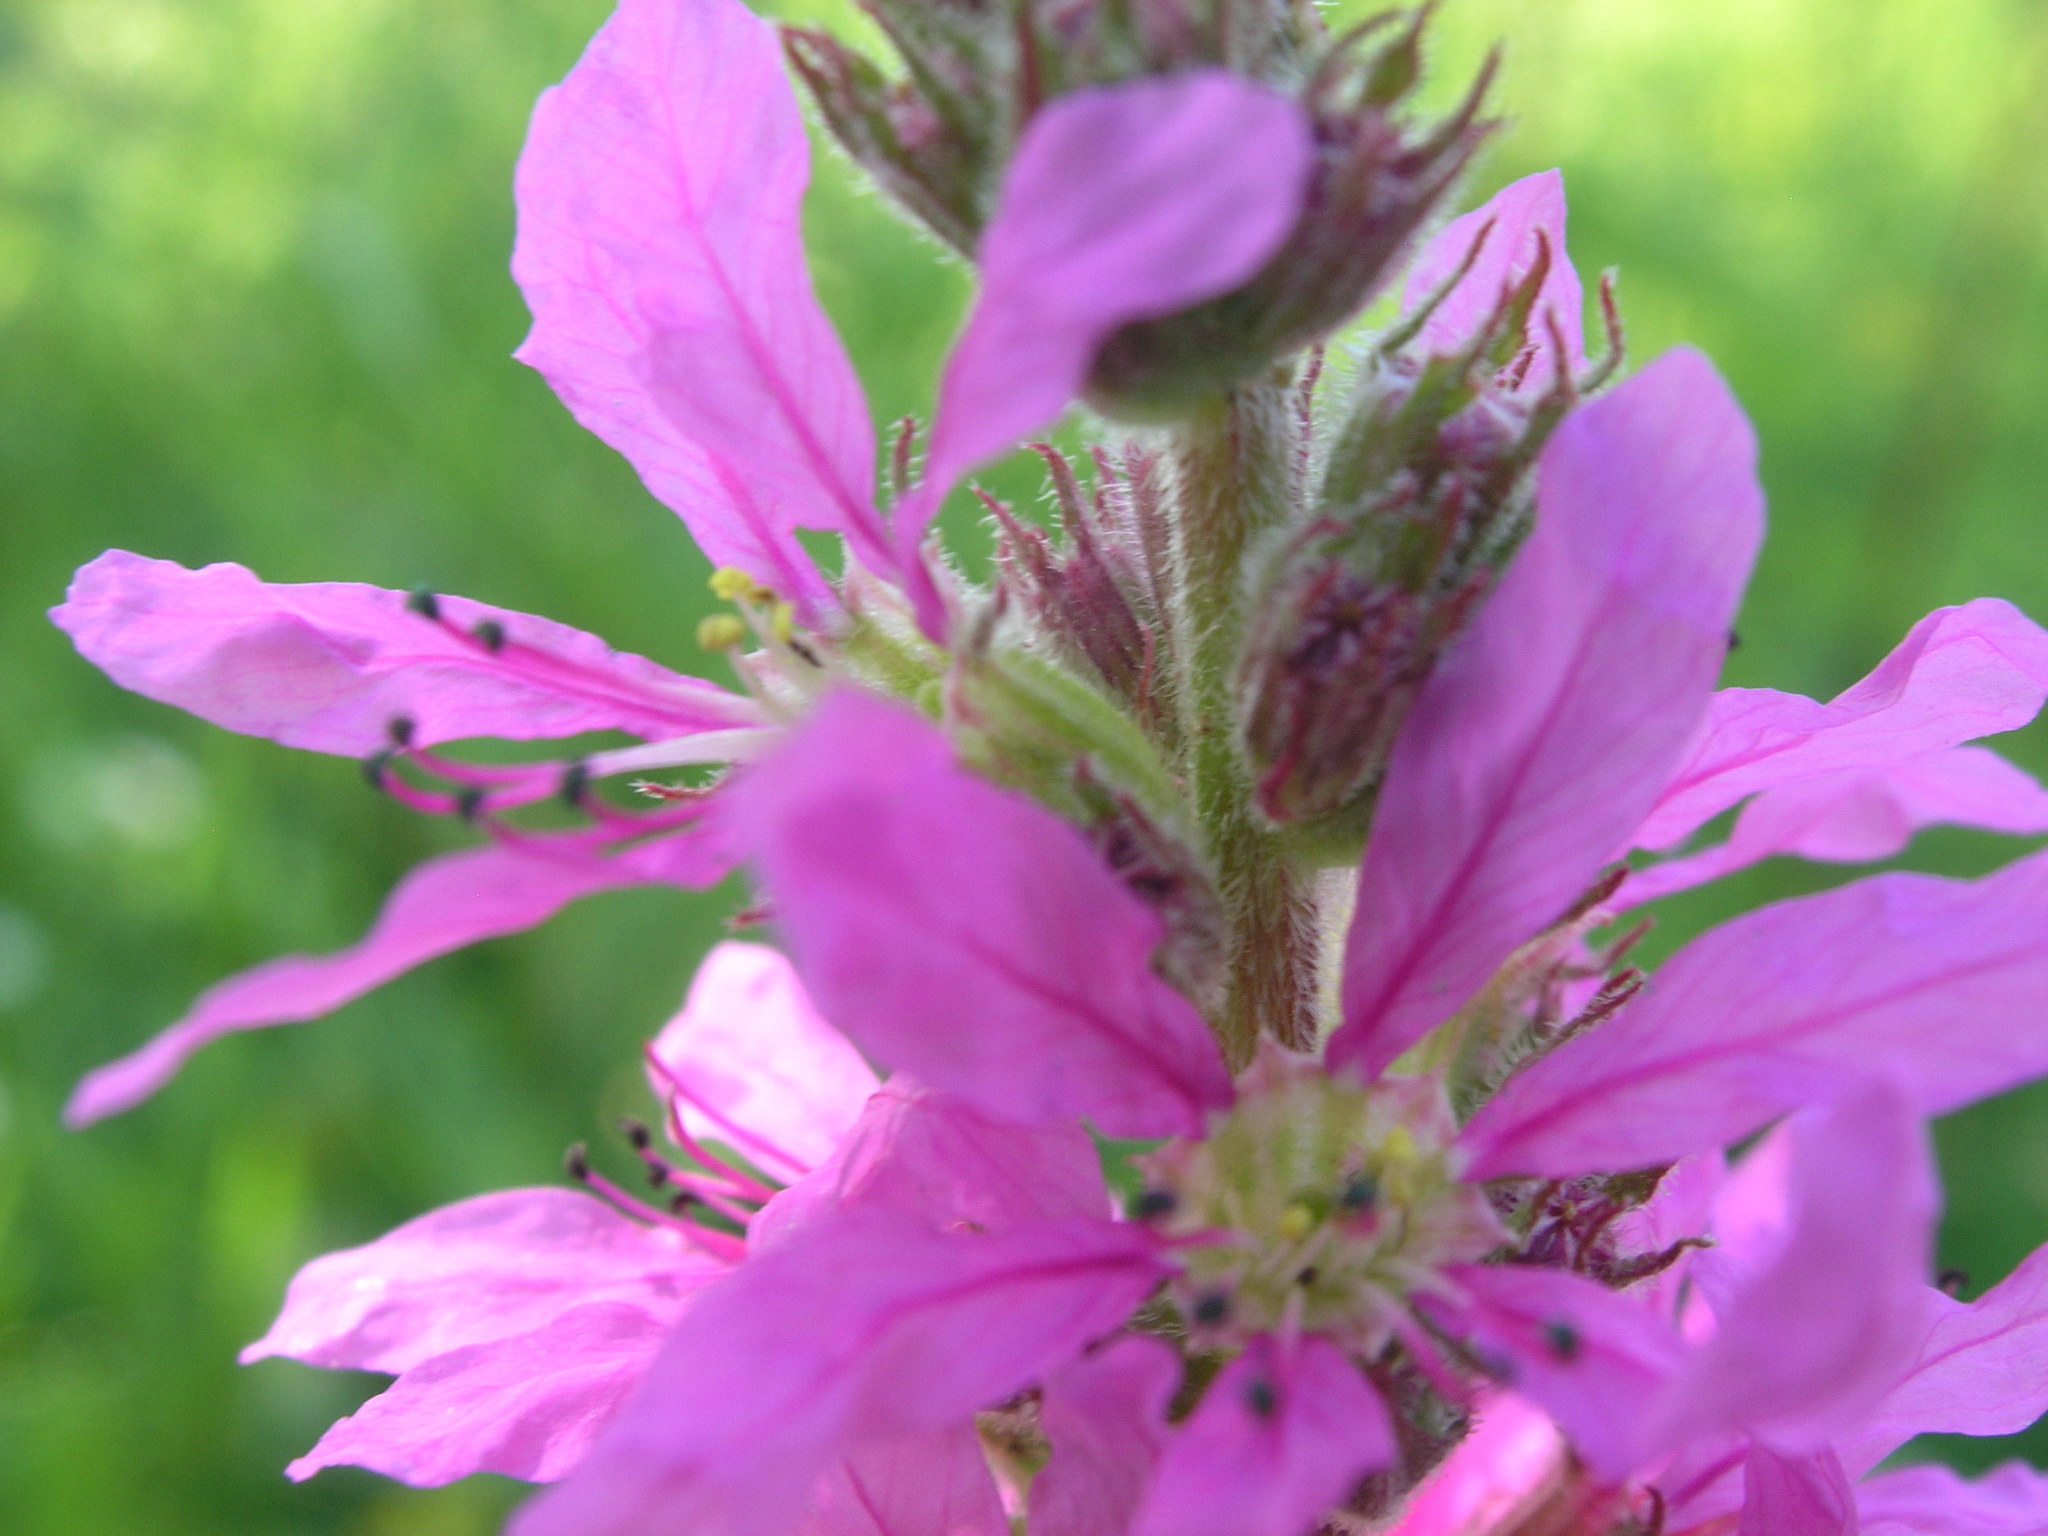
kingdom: Plantae
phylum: Tracheophyta
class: Magnoliopsida
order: Myrtales
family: Lythraceae
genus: Lythrum
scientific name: Lythrum salicaria
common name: Purple loosestrife
